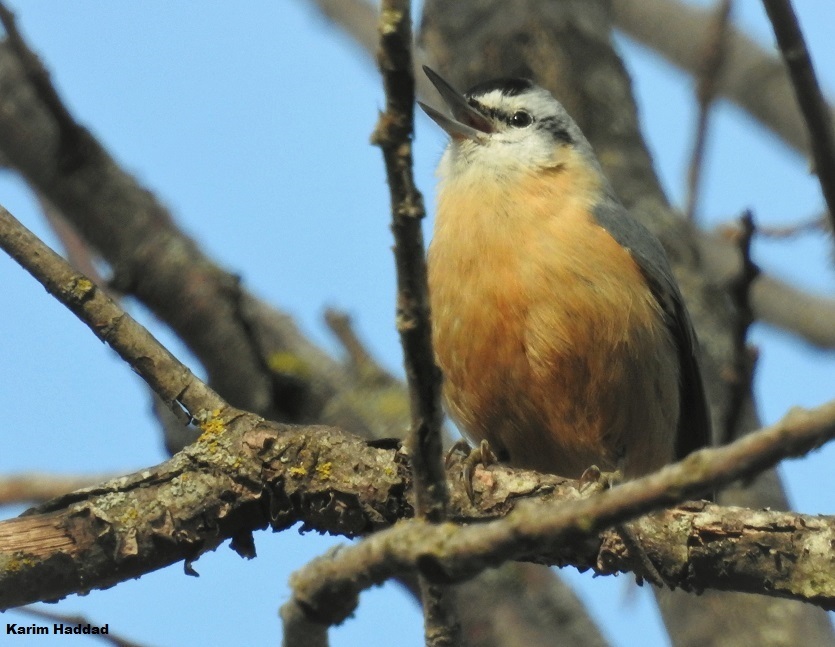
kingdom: Animalia
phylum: Chordata
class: Aves
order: Passeriformes
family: Sittidae
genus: Sitta
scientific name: Sitta ledanti
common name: Algerian nuthatch
